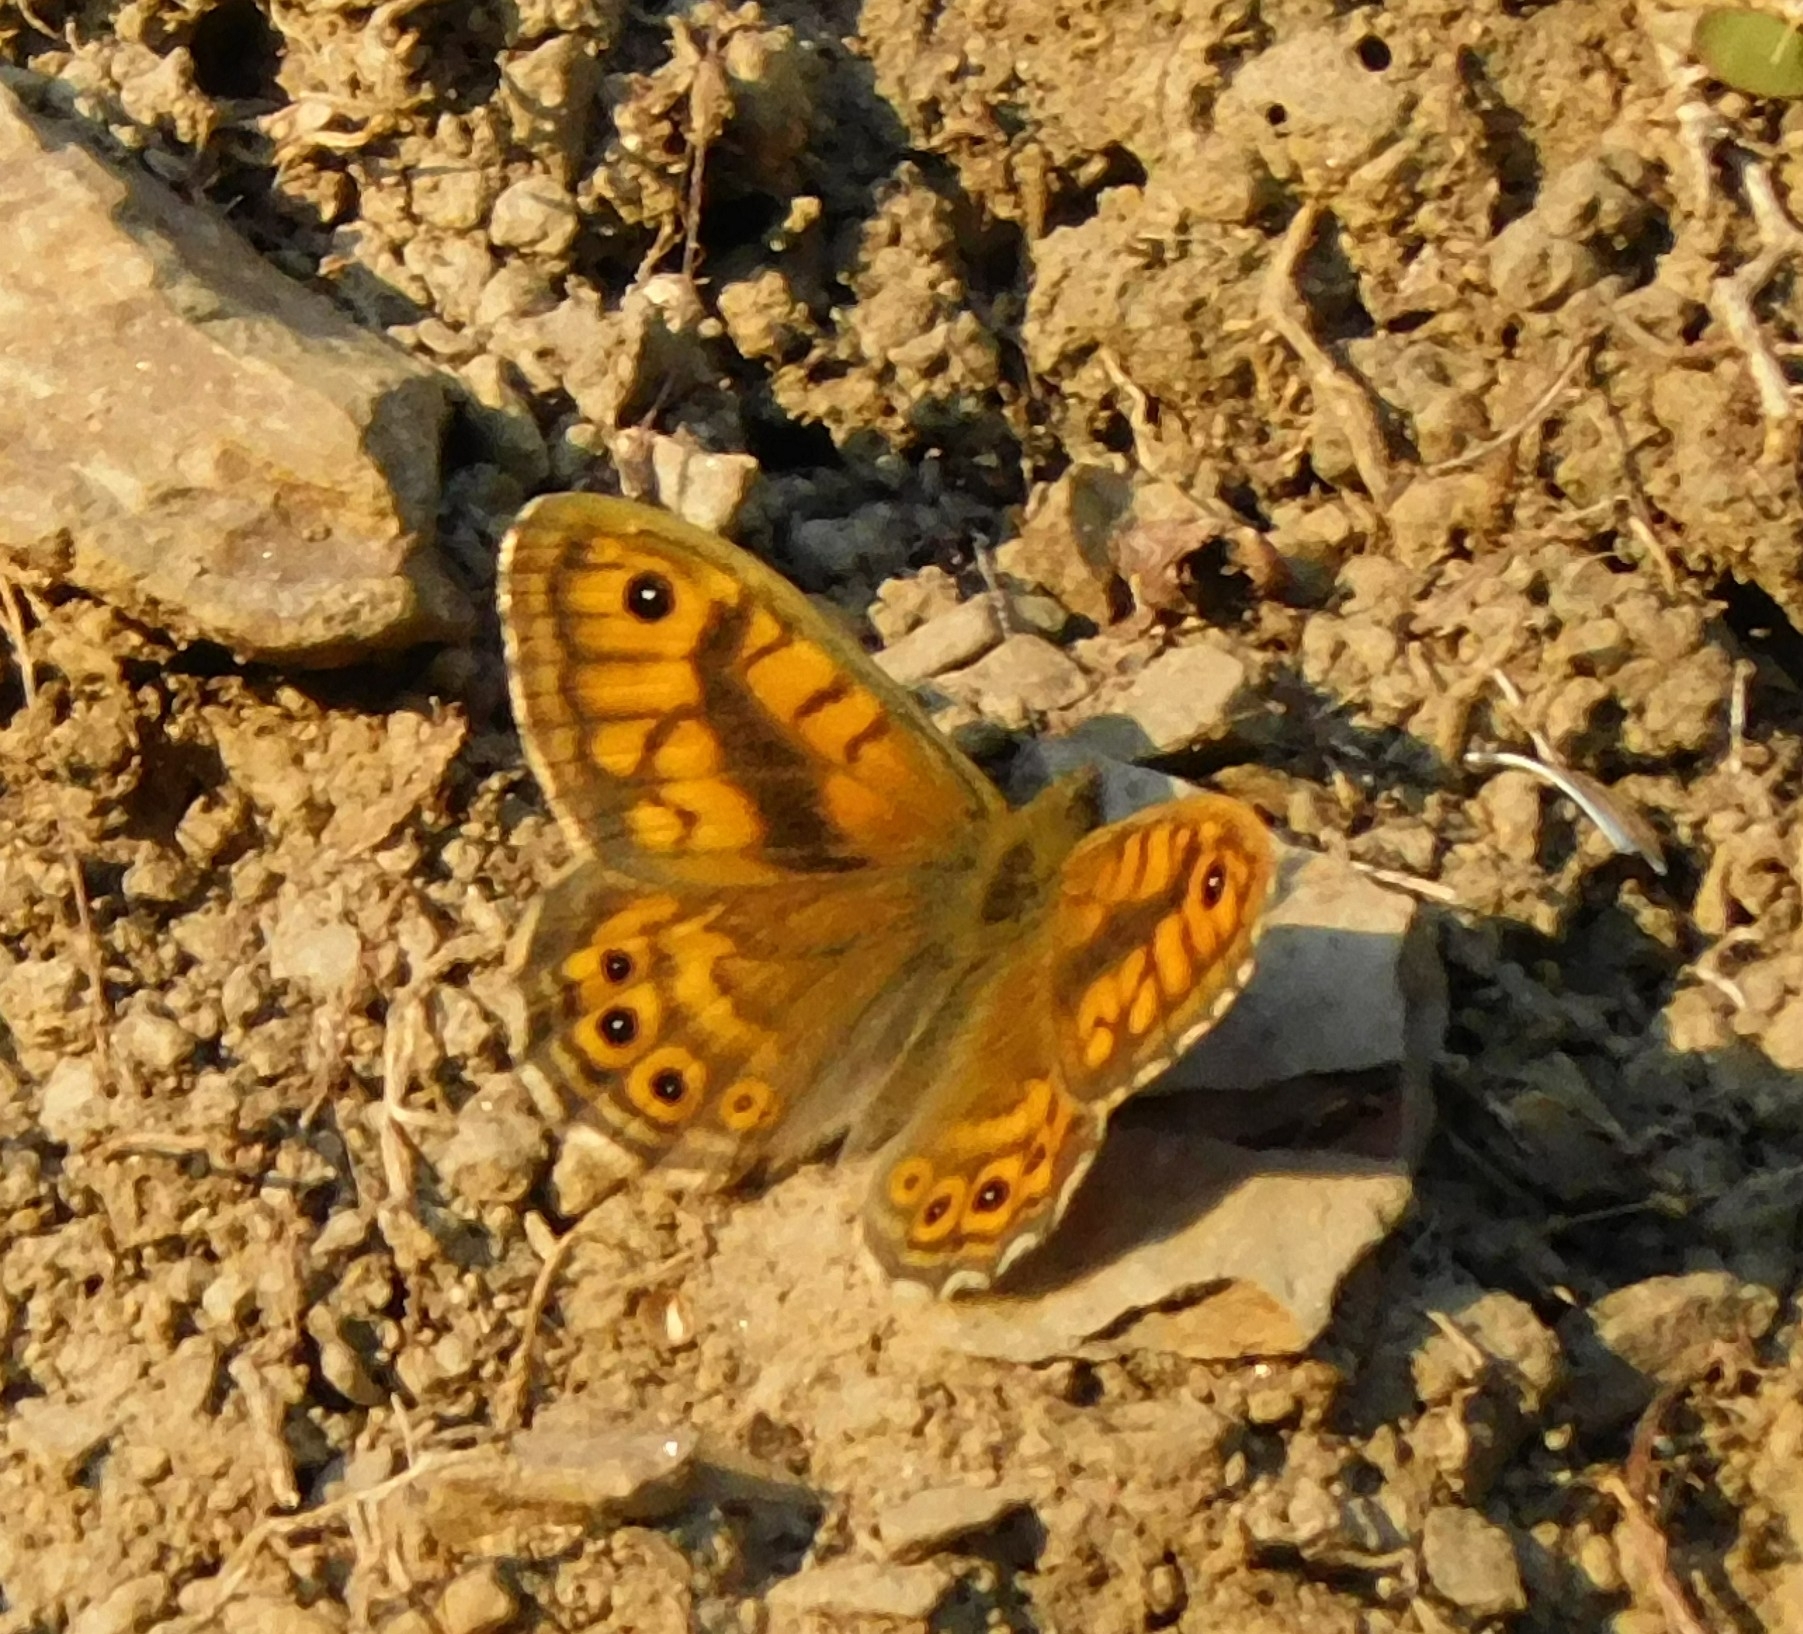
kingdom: Animalia
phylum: Arthropoda
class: Insecta
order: Lepidoptera
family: Nymphalidae
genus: Pararge
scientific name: Pararge Lasiommata megera
